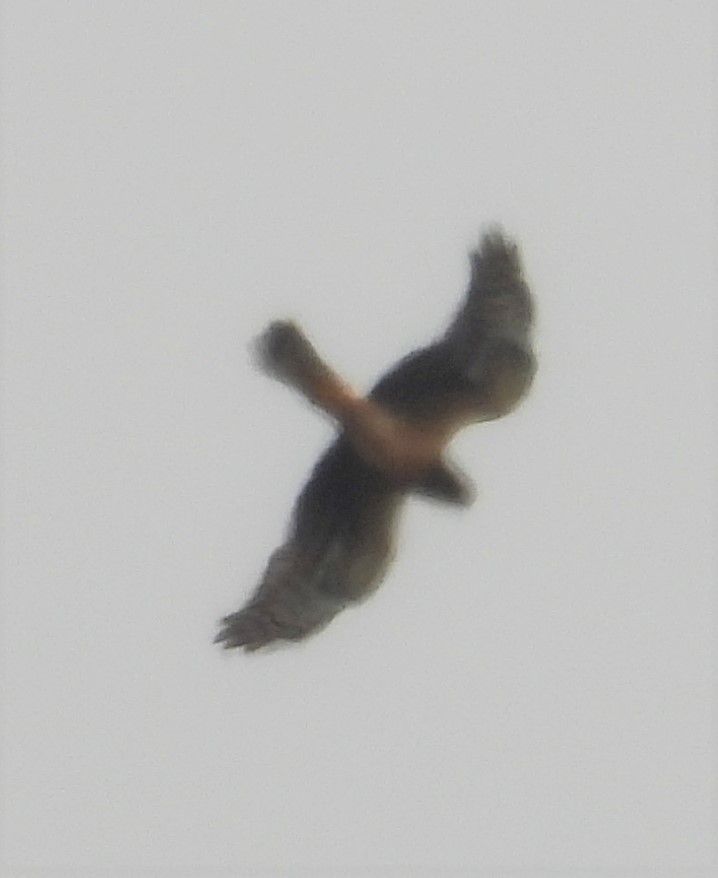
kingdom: Animalia
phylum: Chordata
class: Aves
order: Accipitriformes
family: Accipitridae
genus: Circus
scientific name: Circus cyaneus
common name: Hen harrier
